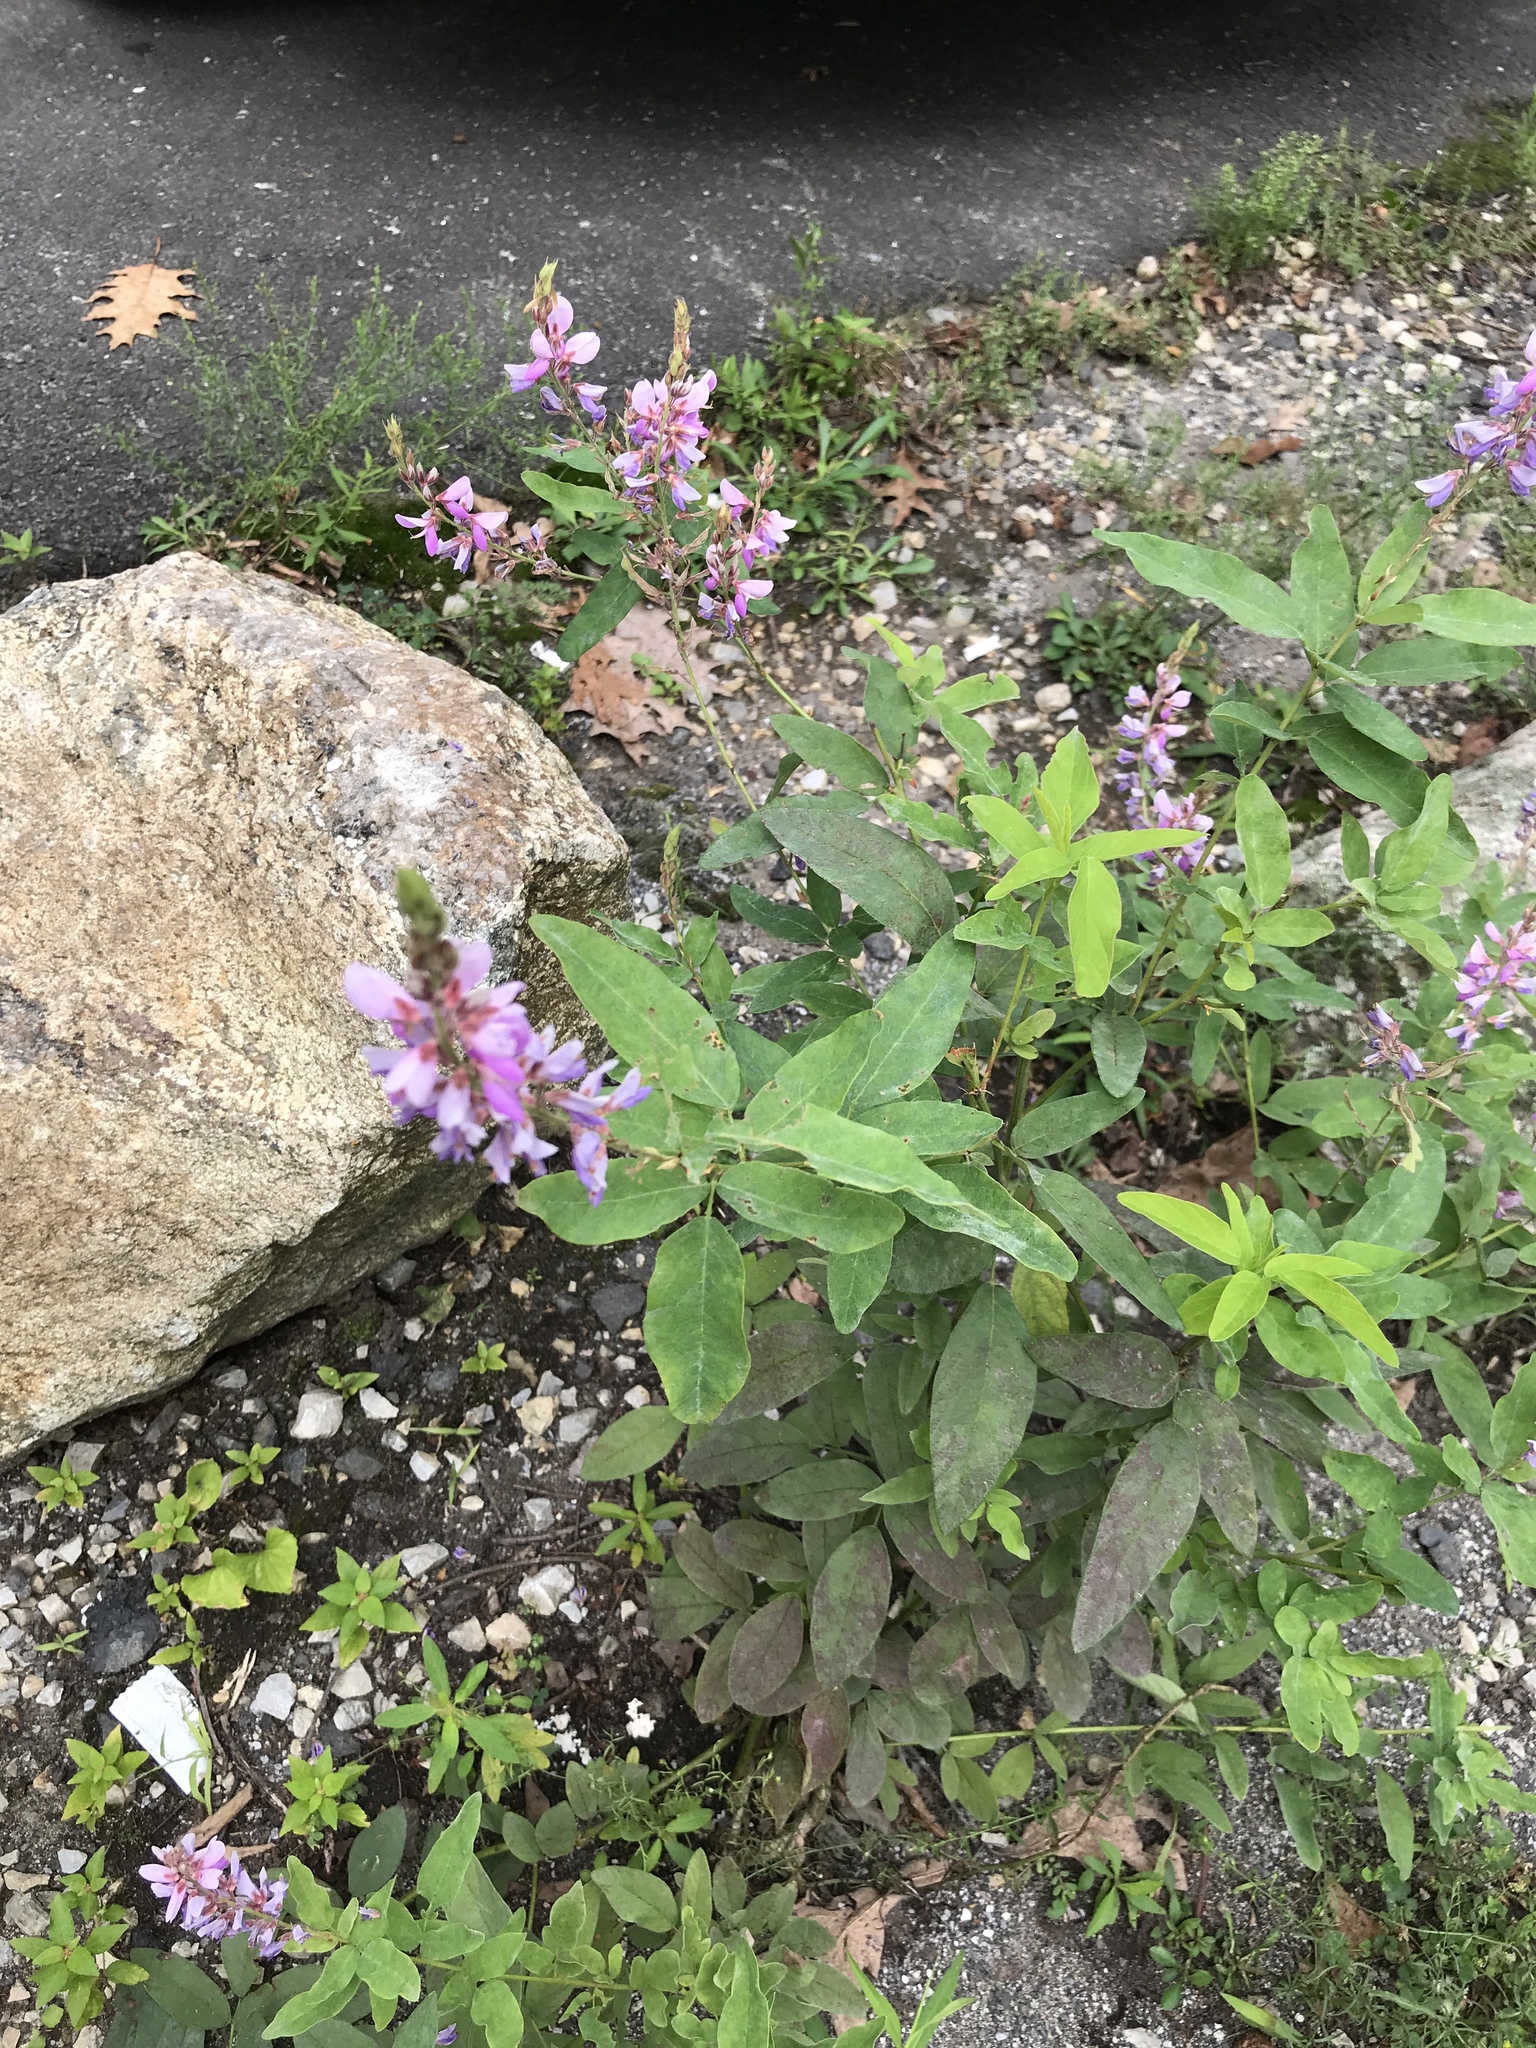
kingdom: Plantae
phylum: Tracheophyta
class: Magnoliopsida
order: Fabales
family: Fabaceae
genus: Desmodium
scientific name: Desmodium canadense
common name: Canada tick-trefoil
